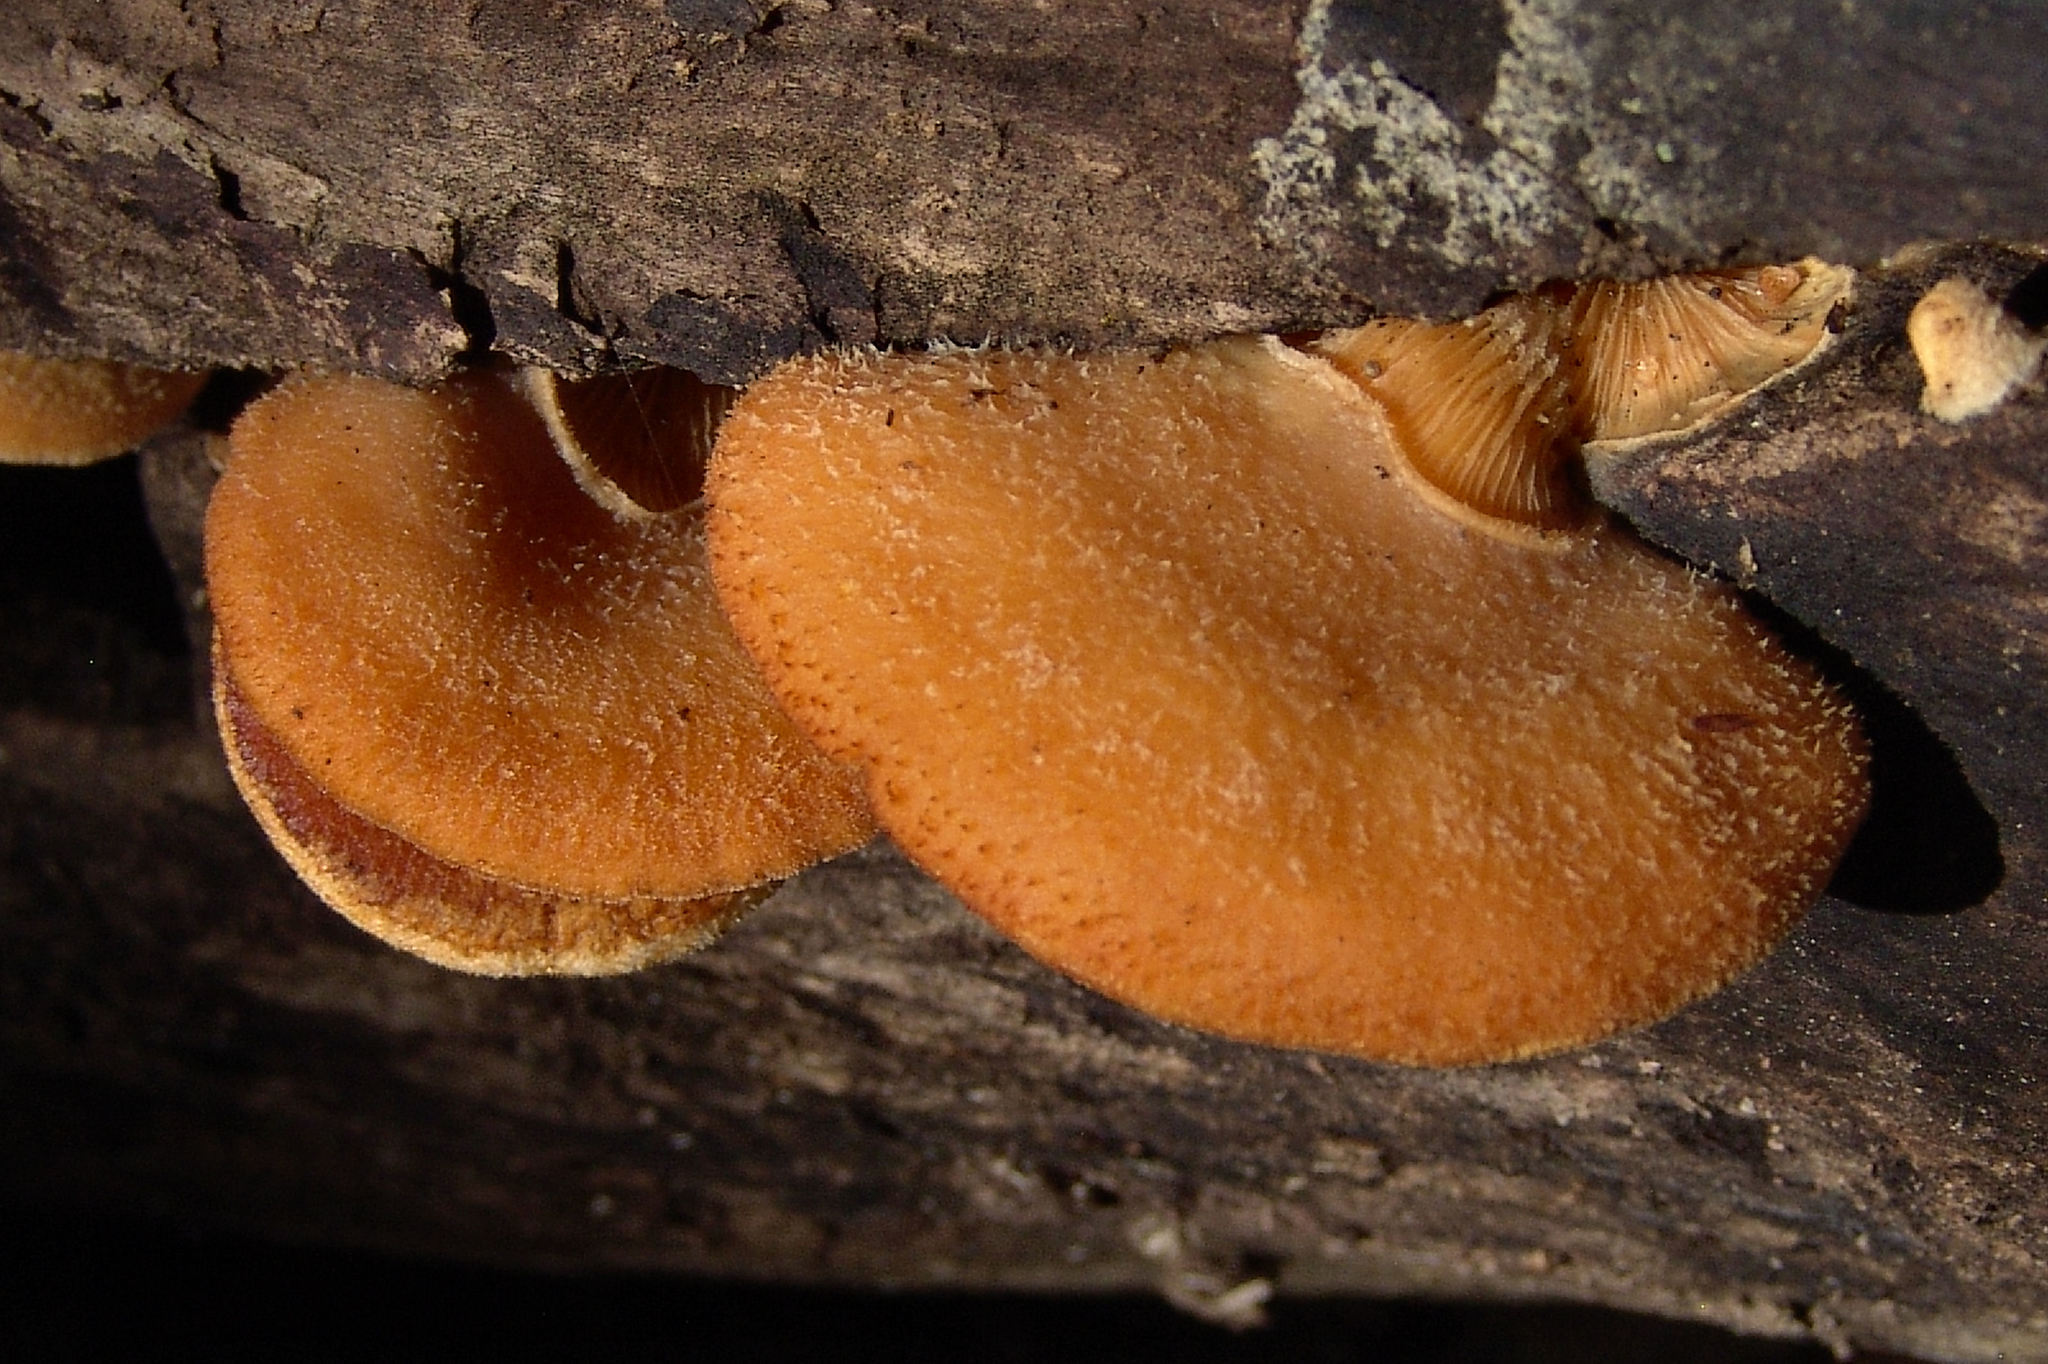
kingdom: Fungi
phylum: Basidiomycota
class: Agaricomycetes
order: Agaricales
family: Phyllotopsidaceae
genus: Phyllotopsis
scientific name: Phyllotopsis nidulans
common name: Orange mock oyster
